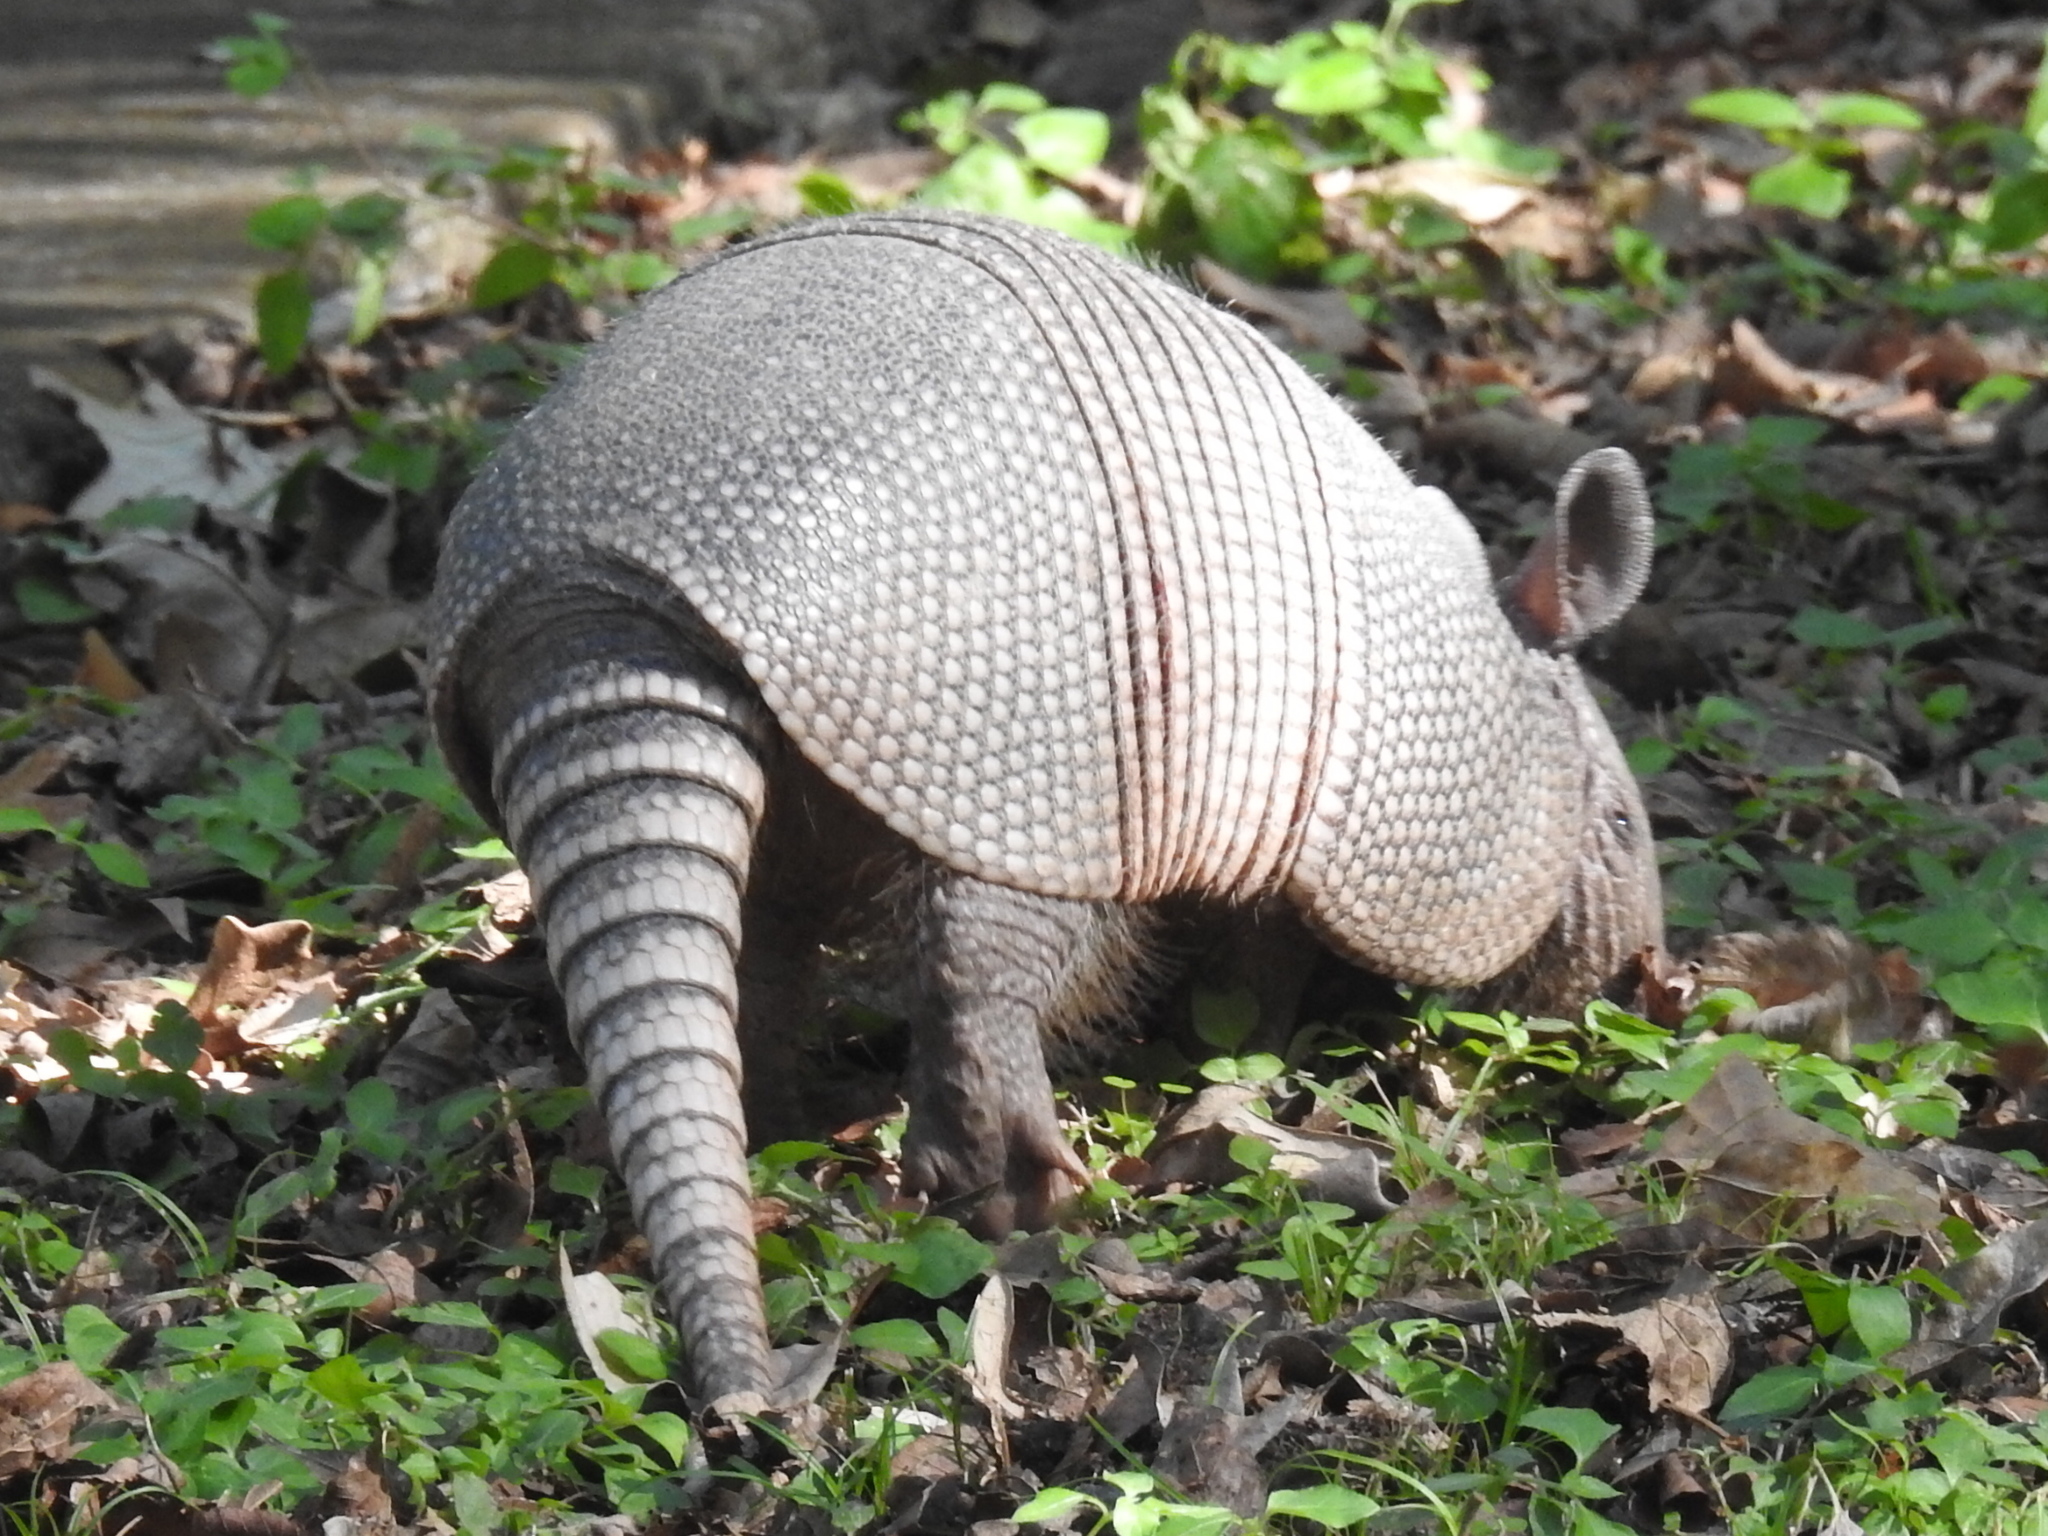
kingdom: Animalia
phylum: Chordata
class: Mammalia
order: Cingulata
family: Dasypodidae
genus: Dasypus
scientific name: Dasypus novemcinctus
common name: Nine-banded armadillo
